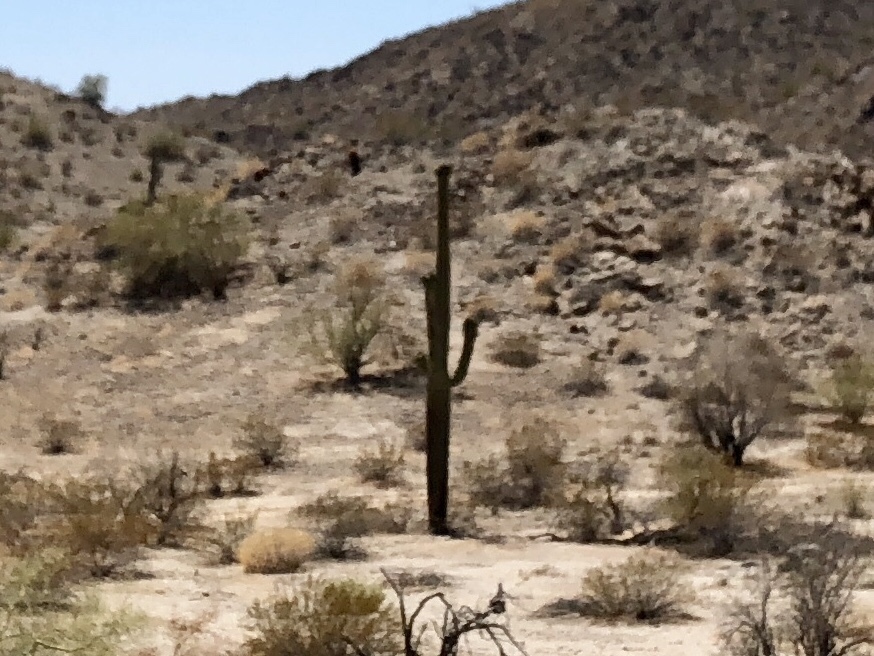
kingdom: Plantae
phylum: Tracheophyta
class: Magnoliopsida
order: Caryophyllales
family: Cactaceae
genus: Carnegiea
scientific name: Carnegiea gigantea
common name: Saguaro
